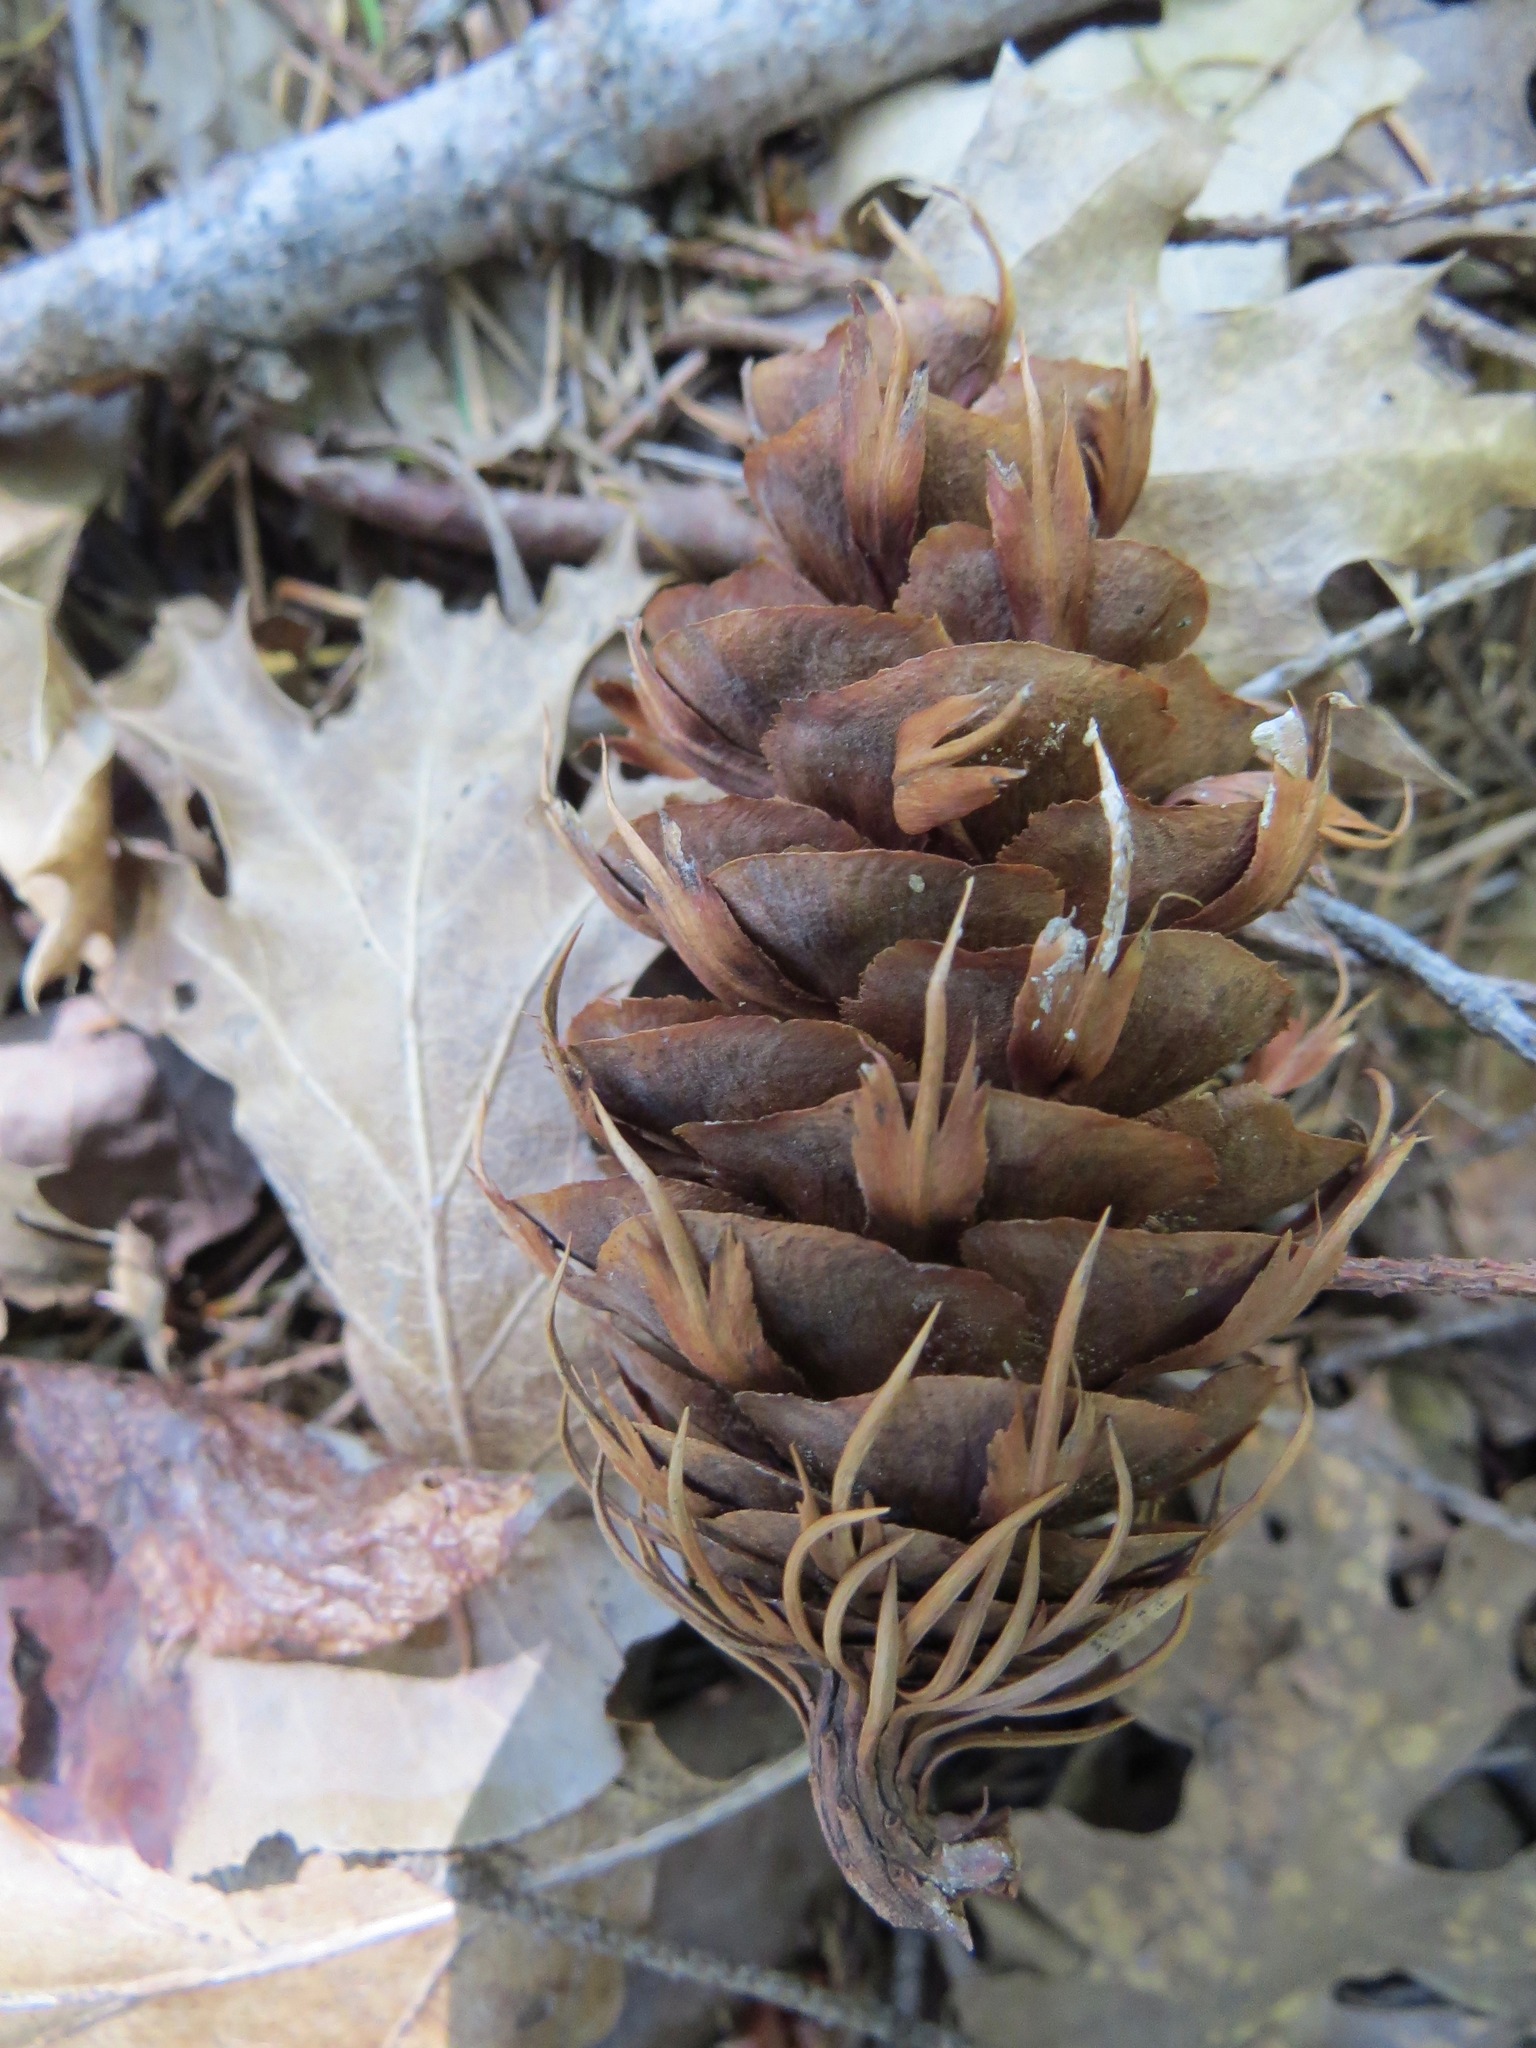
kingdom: Plantae
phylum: Tracheophyta
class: Pinopsida
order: Pinales
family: Pinaceae
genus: Pseudotsuga
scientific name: Pseudotsuga menziesii
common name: Douglas fir
